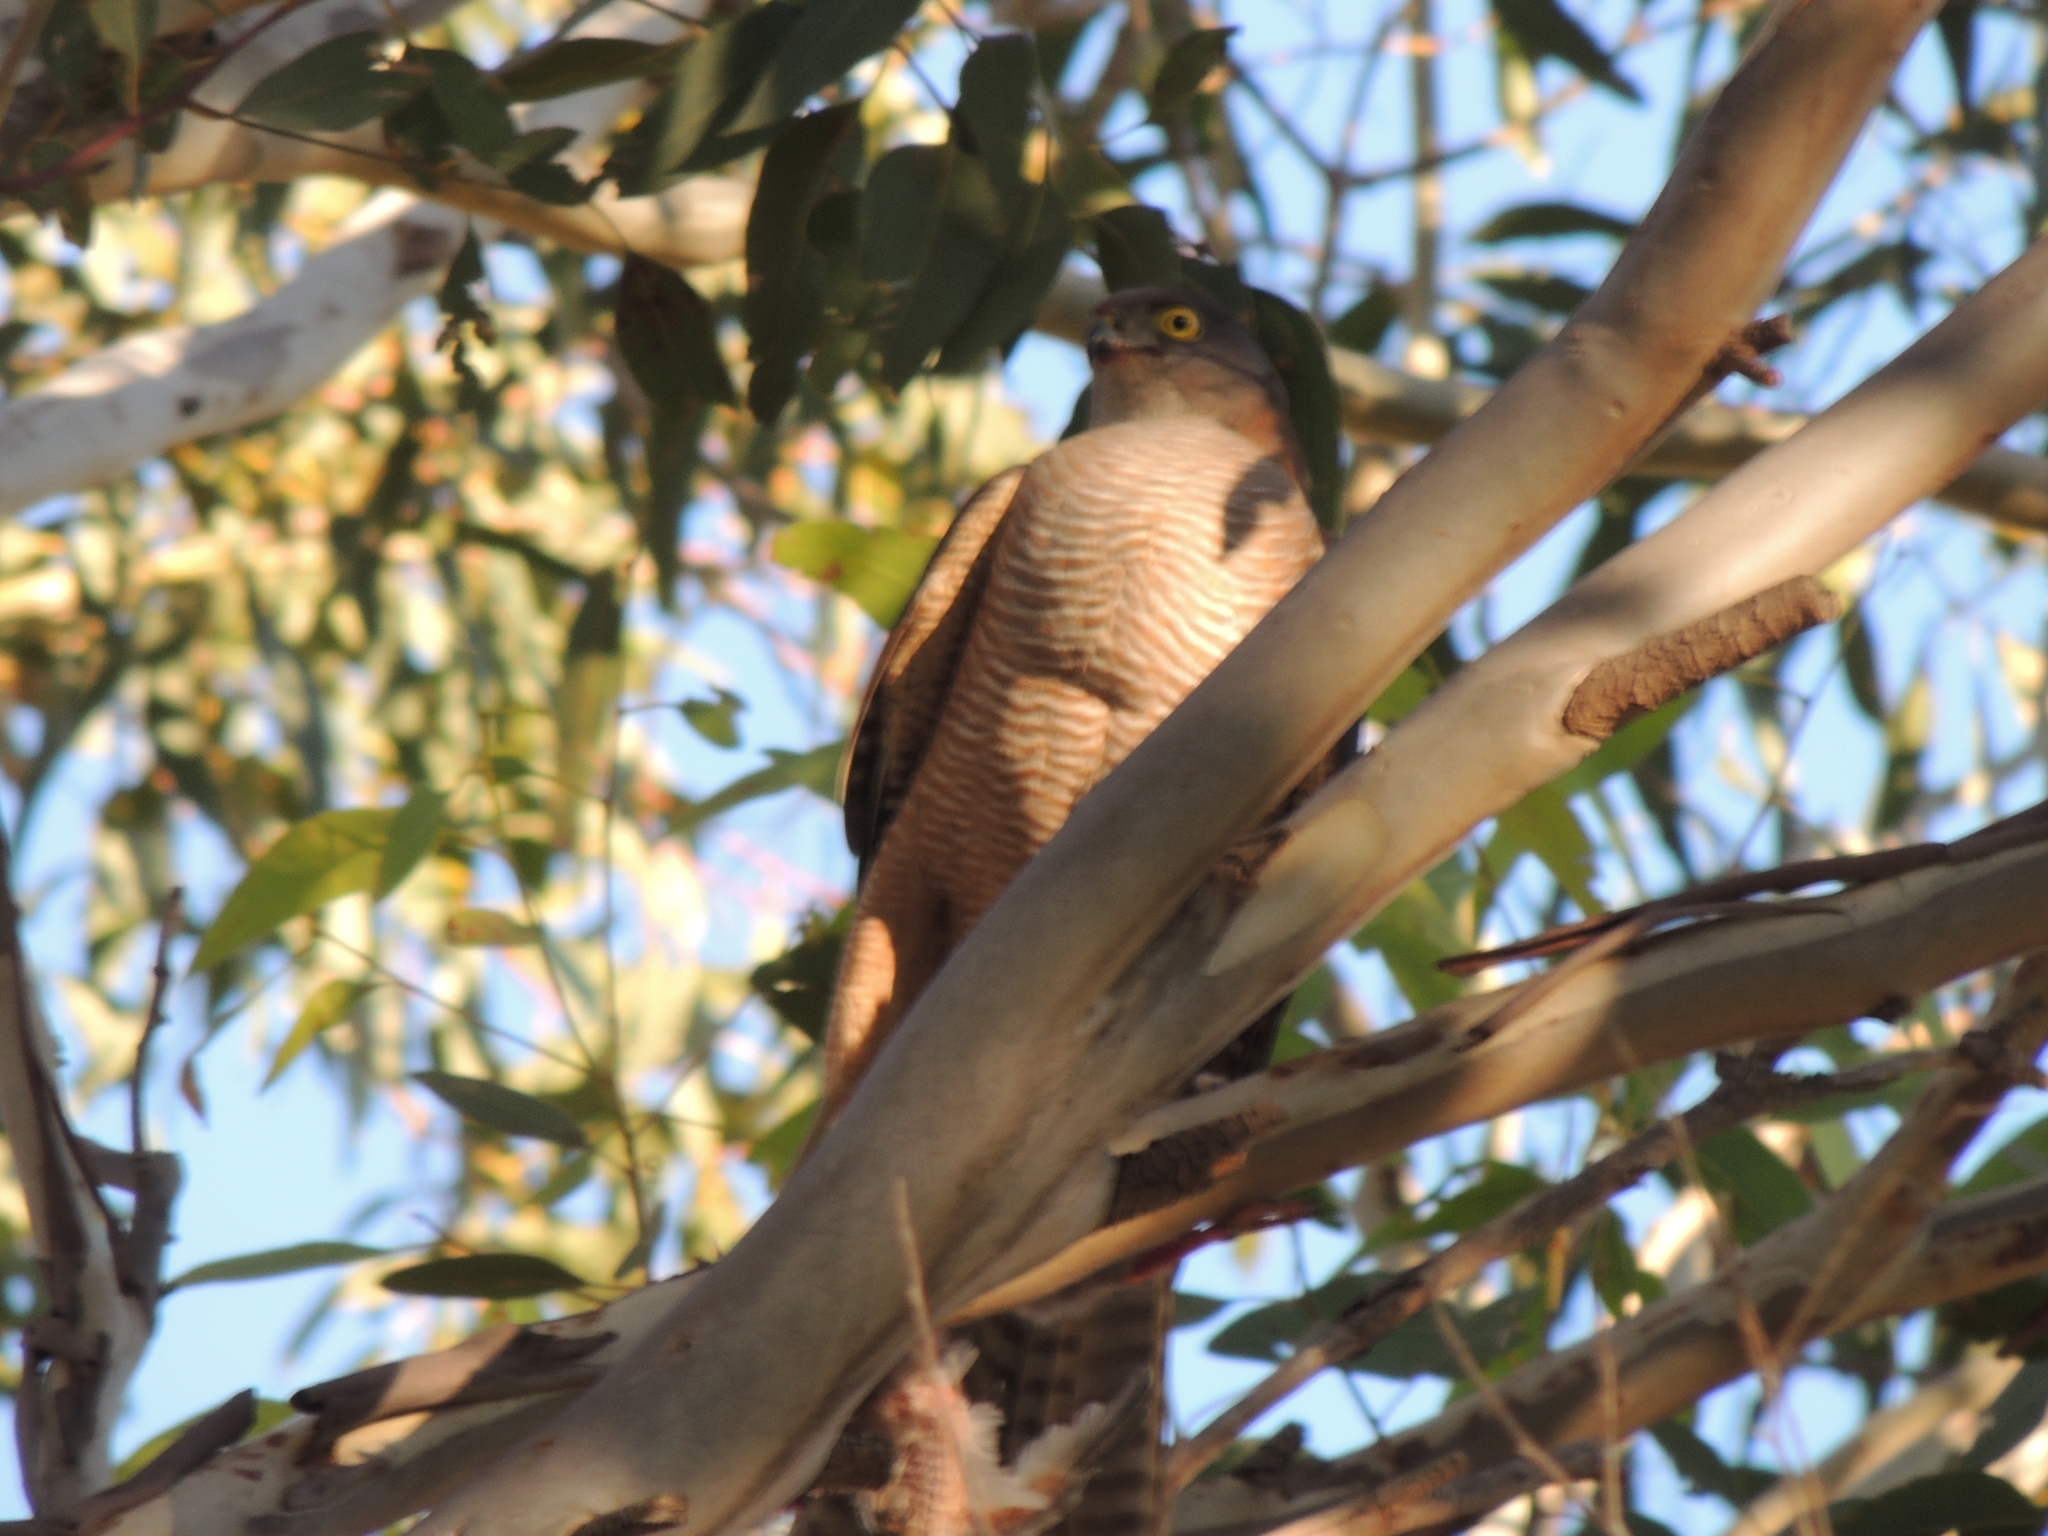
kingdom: Animalia
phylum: Chordata
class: Aves
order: Accipitriformes
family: Accipitridae
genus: Accipiter
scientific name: Accipiter cirrocephalus
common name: Collared sparrowhawk
